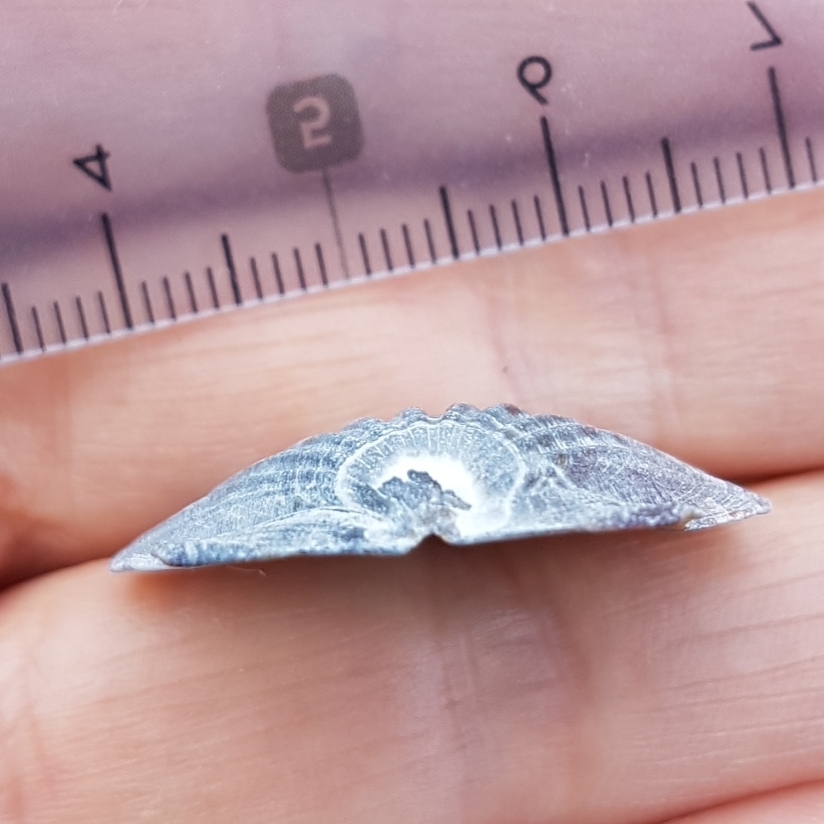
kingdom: Animalia
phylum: Mollusca
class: Bivalvia
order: Pectinida
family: Pectinidae
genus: Flexopecten
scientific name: Flexopecten glaber
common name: Smooth scallop
